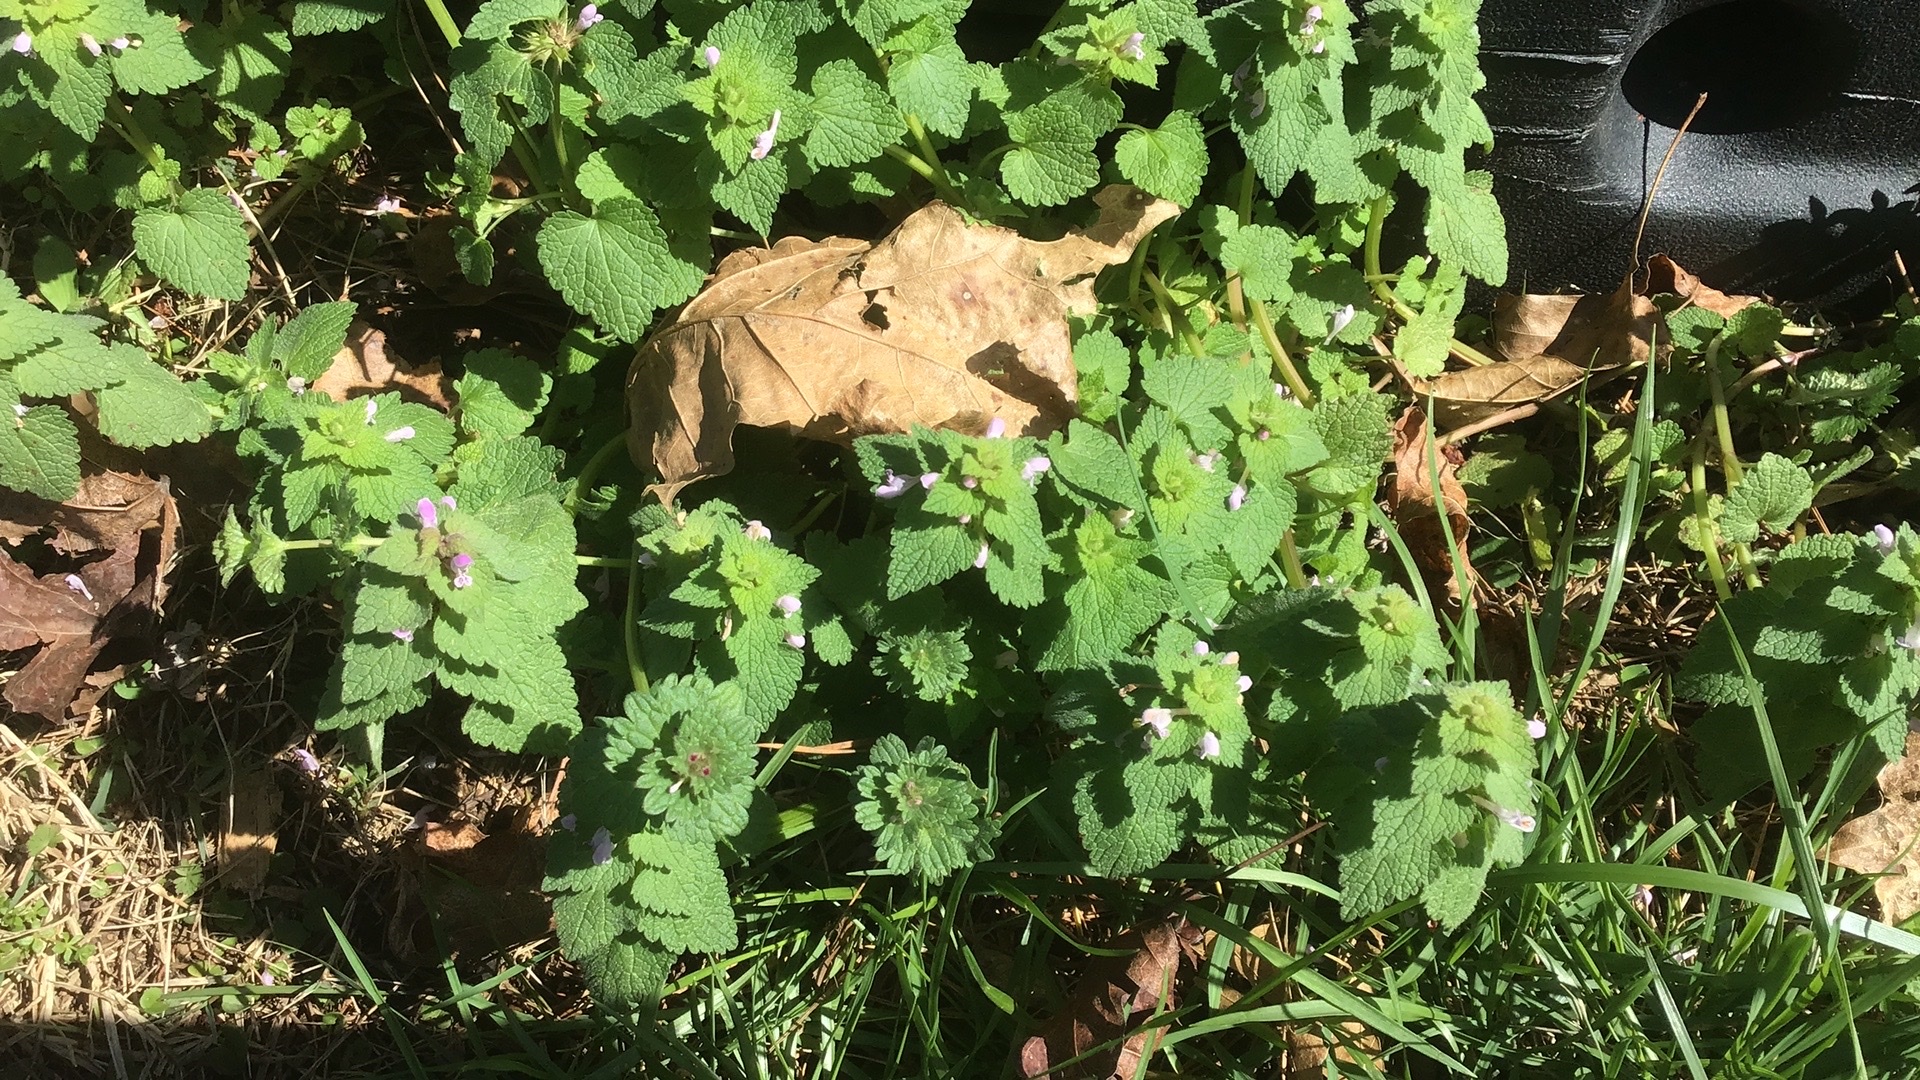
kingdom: Plantae
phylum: Tracheophyta
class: Magnoliopsida
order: Lamiales
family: Lamiaceae
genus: Lamium
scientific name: Lamium purpureum
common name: Red dead-nettle
